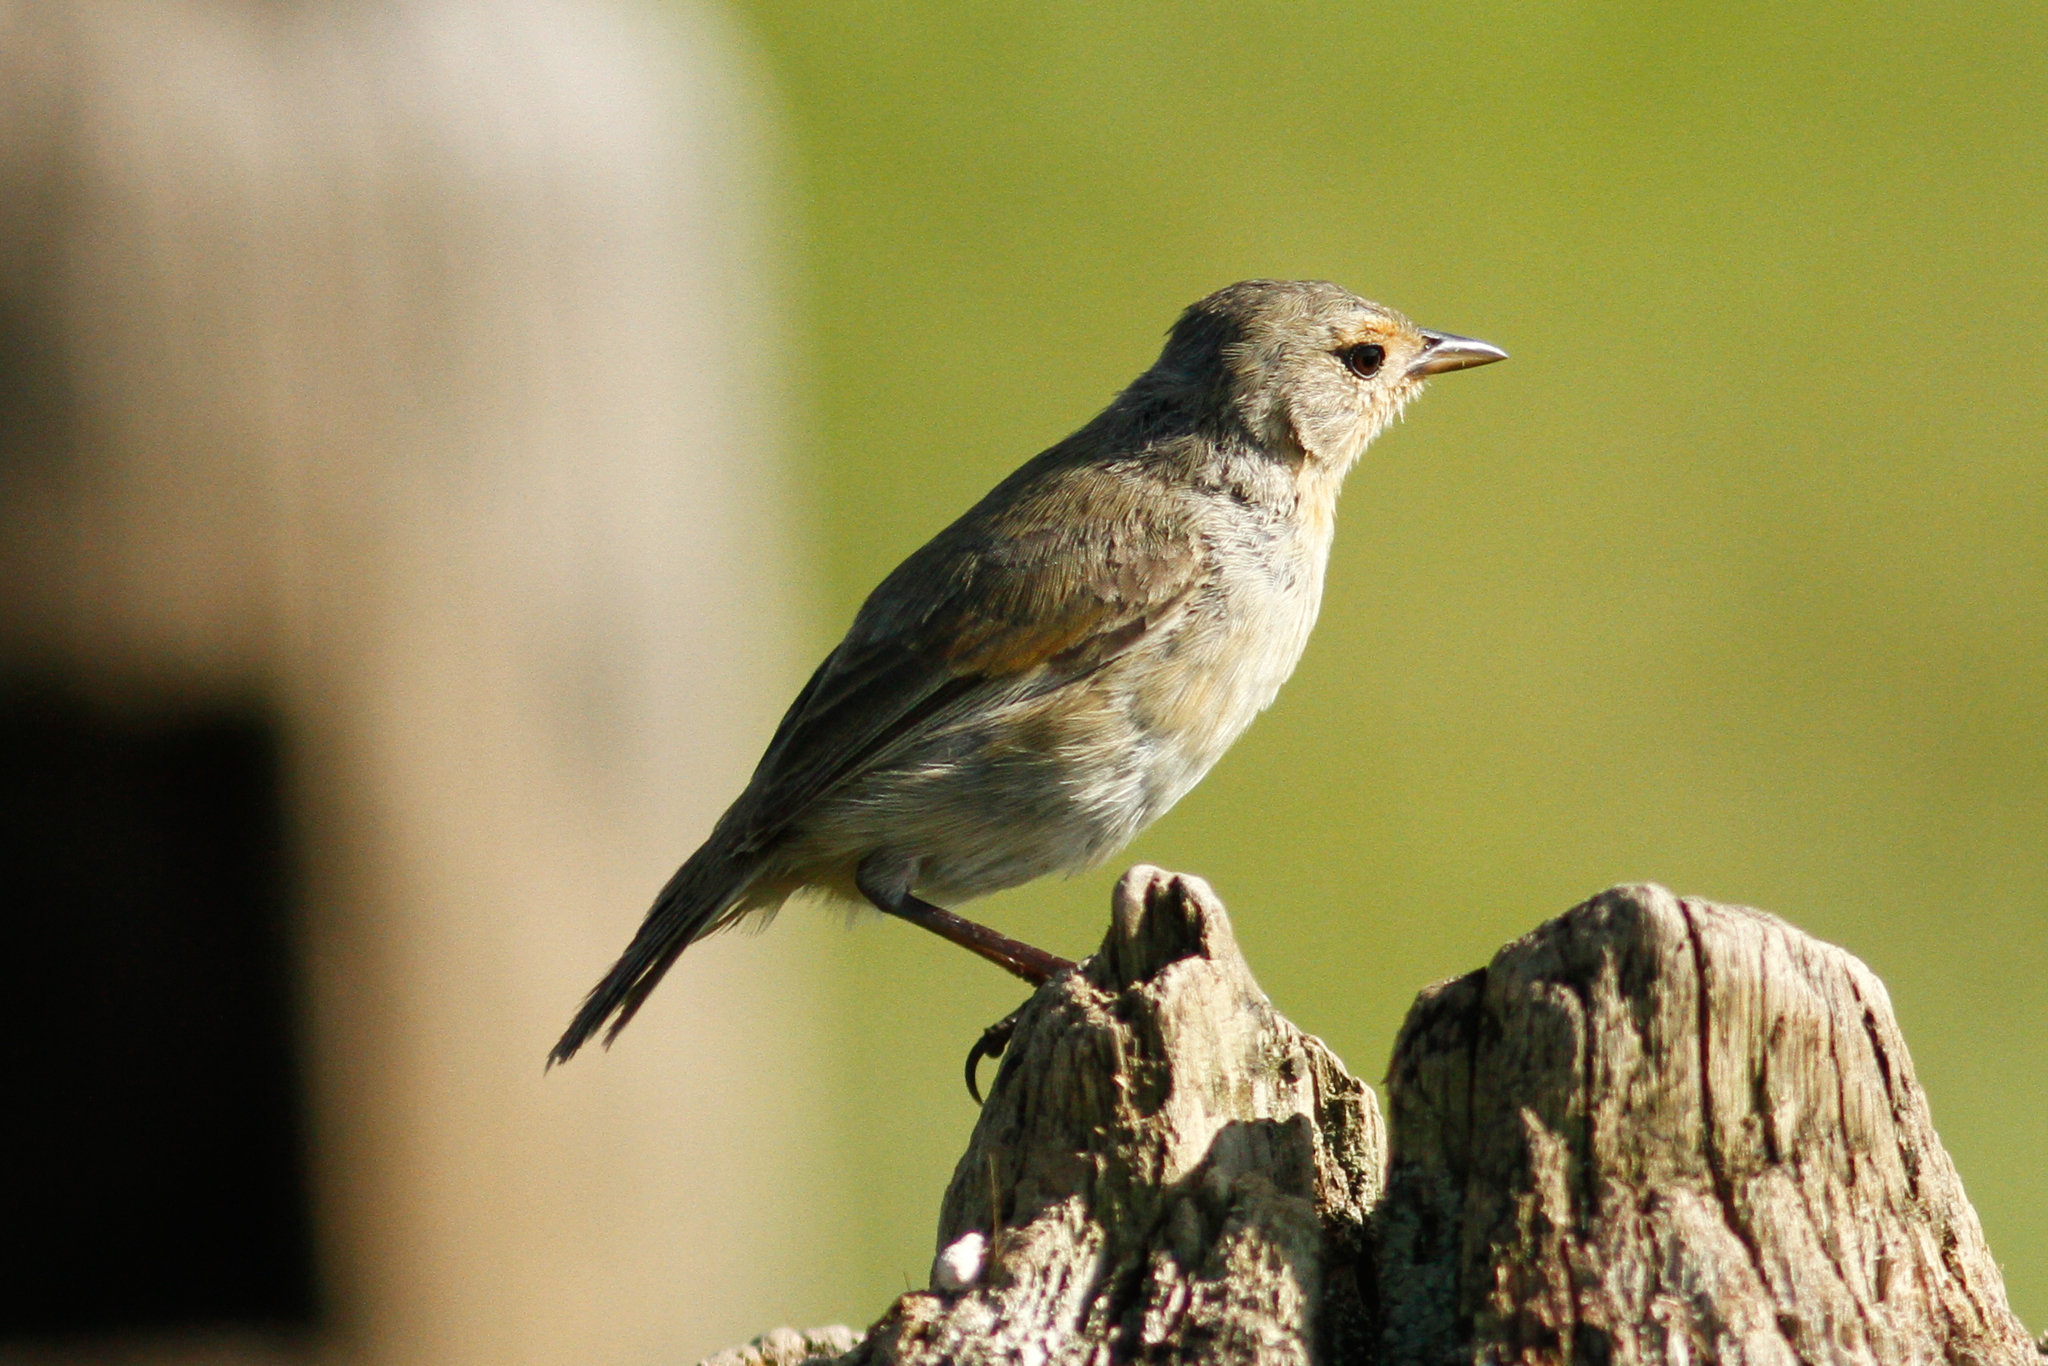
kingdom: Animalia
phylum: Chordata
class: Aves
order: Passeriformes
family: Thraupidae
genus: Certhidea
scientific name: Certhidea olivacea
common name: Green warbler-finch
